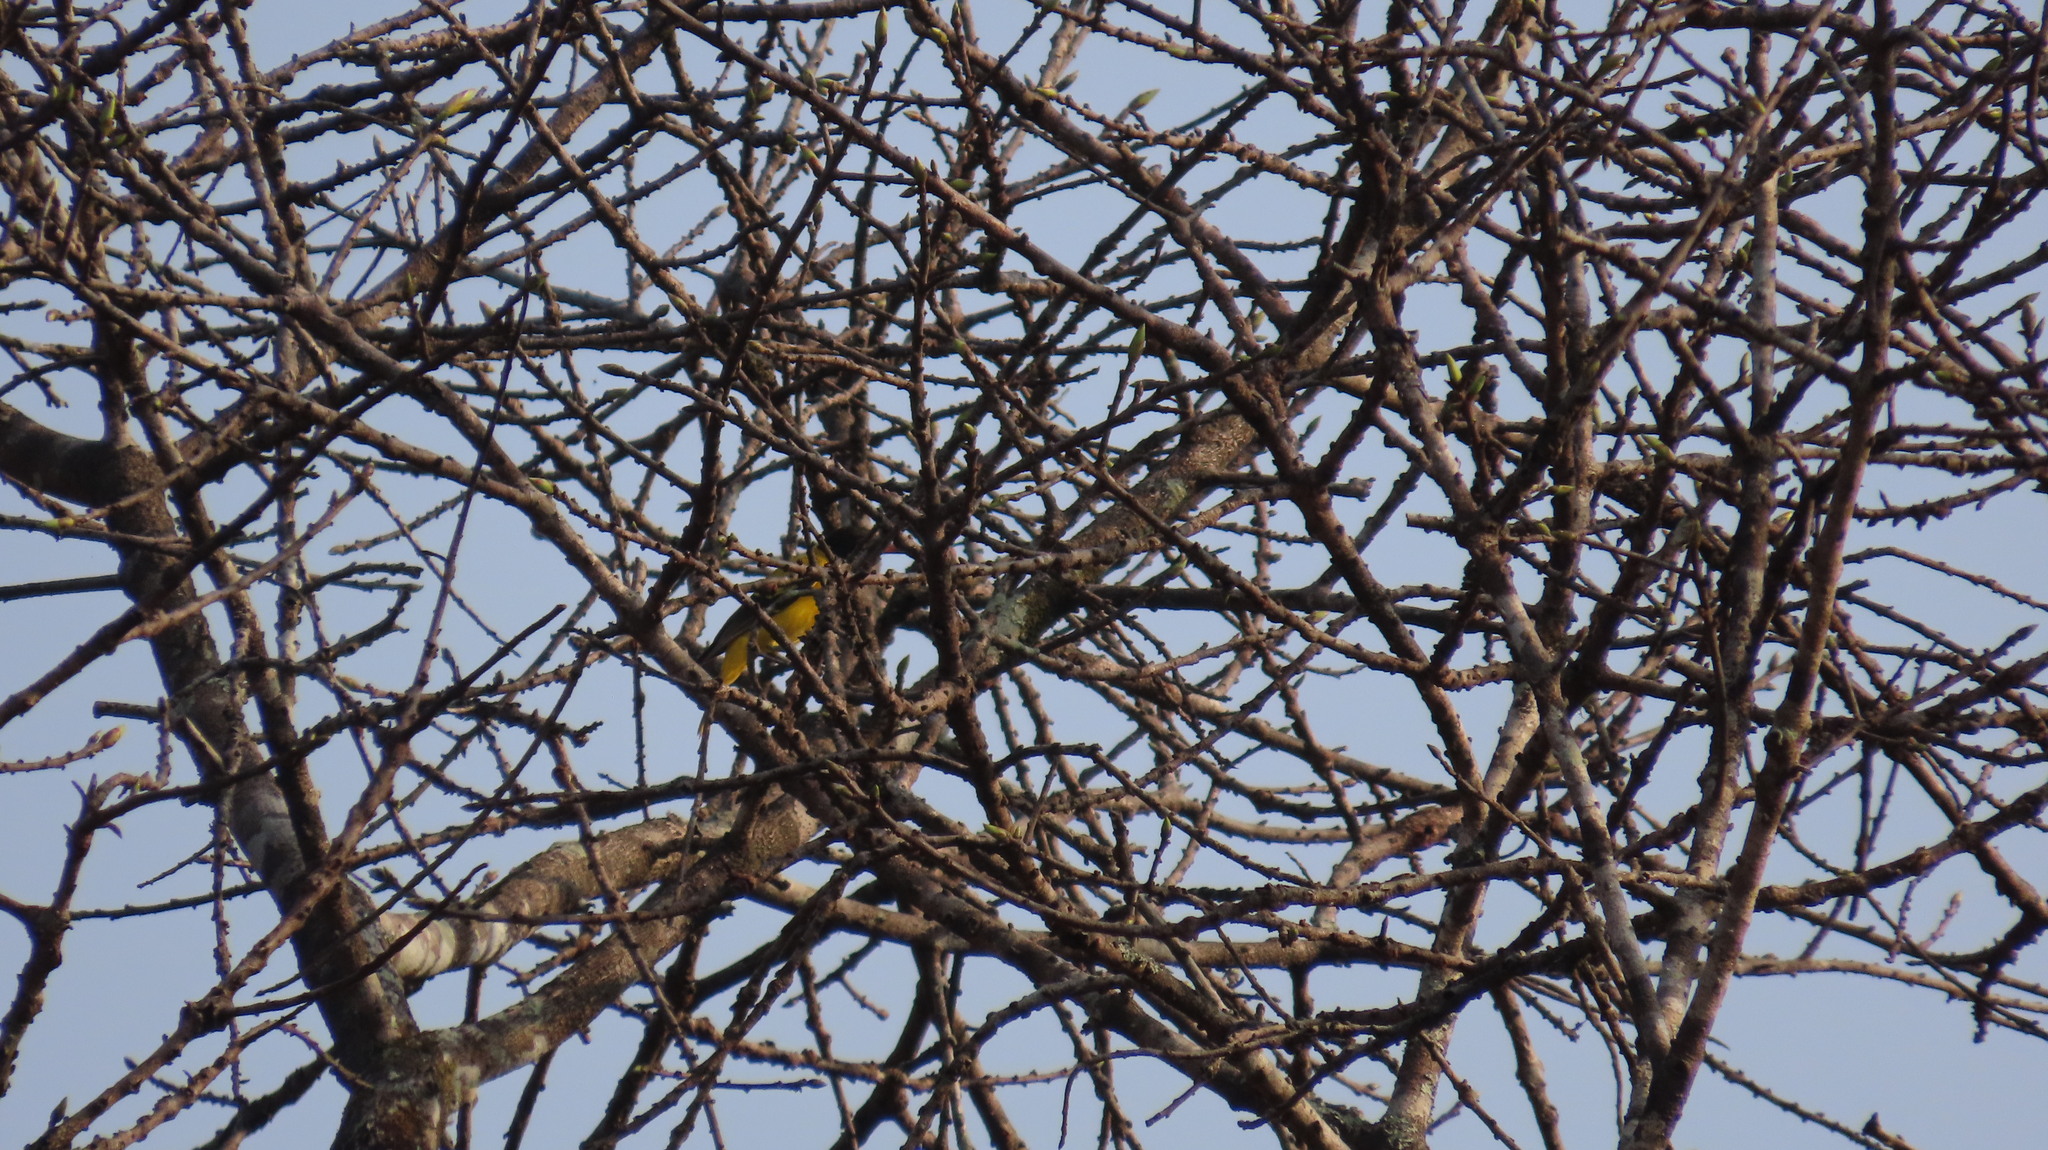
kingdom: Animalia
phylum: Chordata
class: Aves
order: Passeriformes
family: Oriolidae
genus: Oriolus
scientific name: Oriolus xanthornus
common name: Black-hooded oriole
